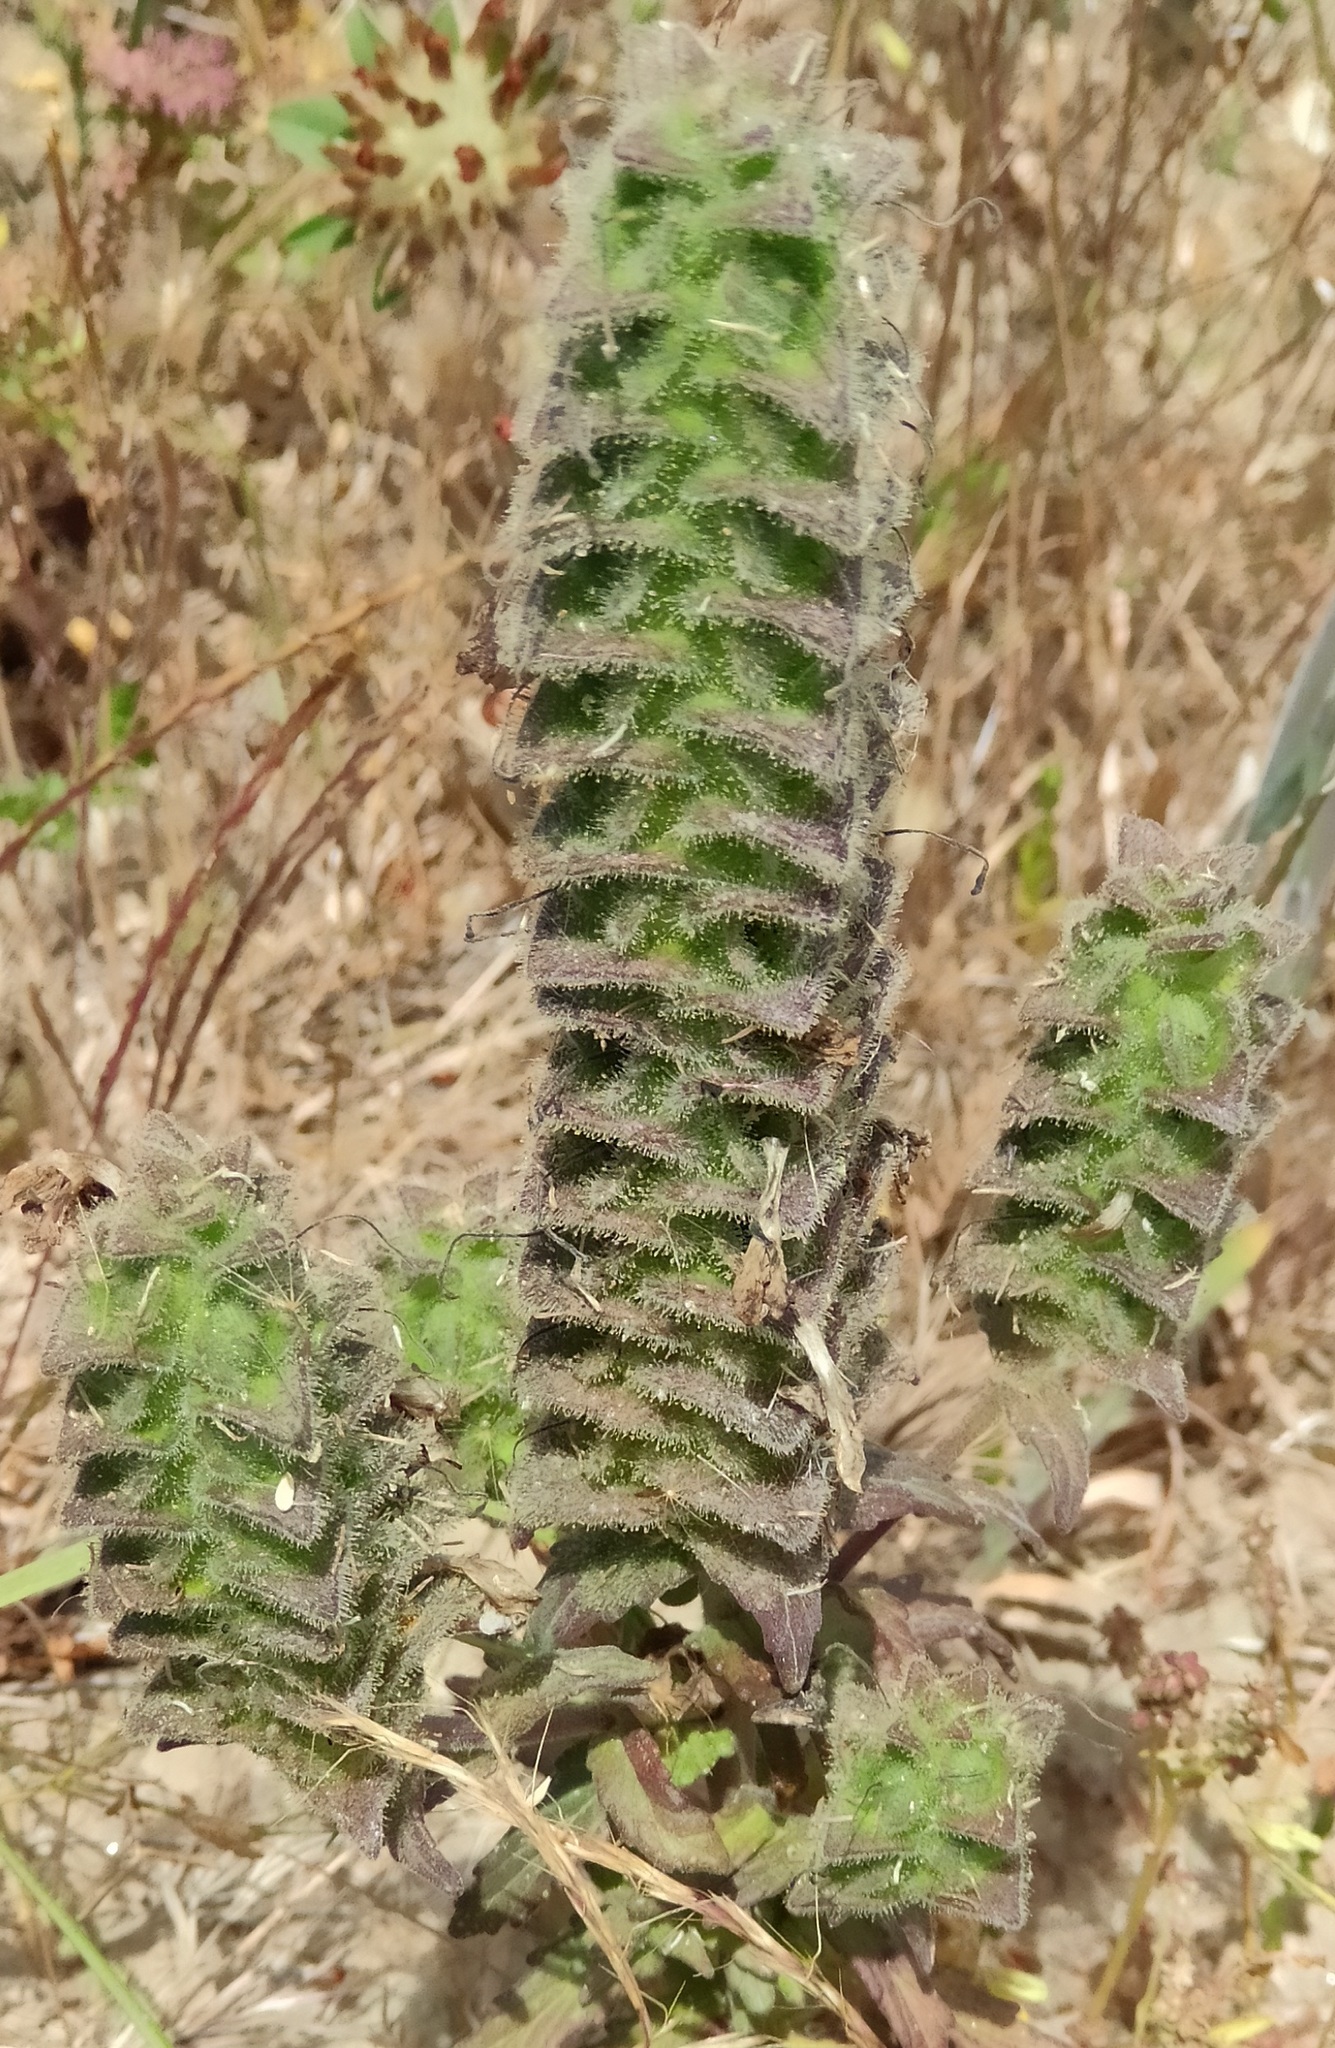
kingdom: Plantae
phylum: Tracheophyta
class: Magnoliopsida
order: Lamiales
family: Orobanchaceae
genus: Bellardia
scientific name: Bellardia trixago
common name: Mediterranean lineseed
